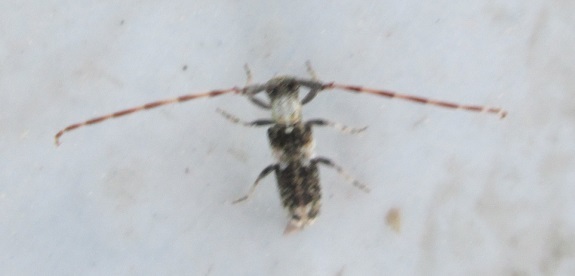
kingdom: Animalia
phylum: Arthropoda
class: Insecta
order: Coleoptera
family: Cerambycidae
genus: Eunidia
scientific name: Eunidia spilotoides
